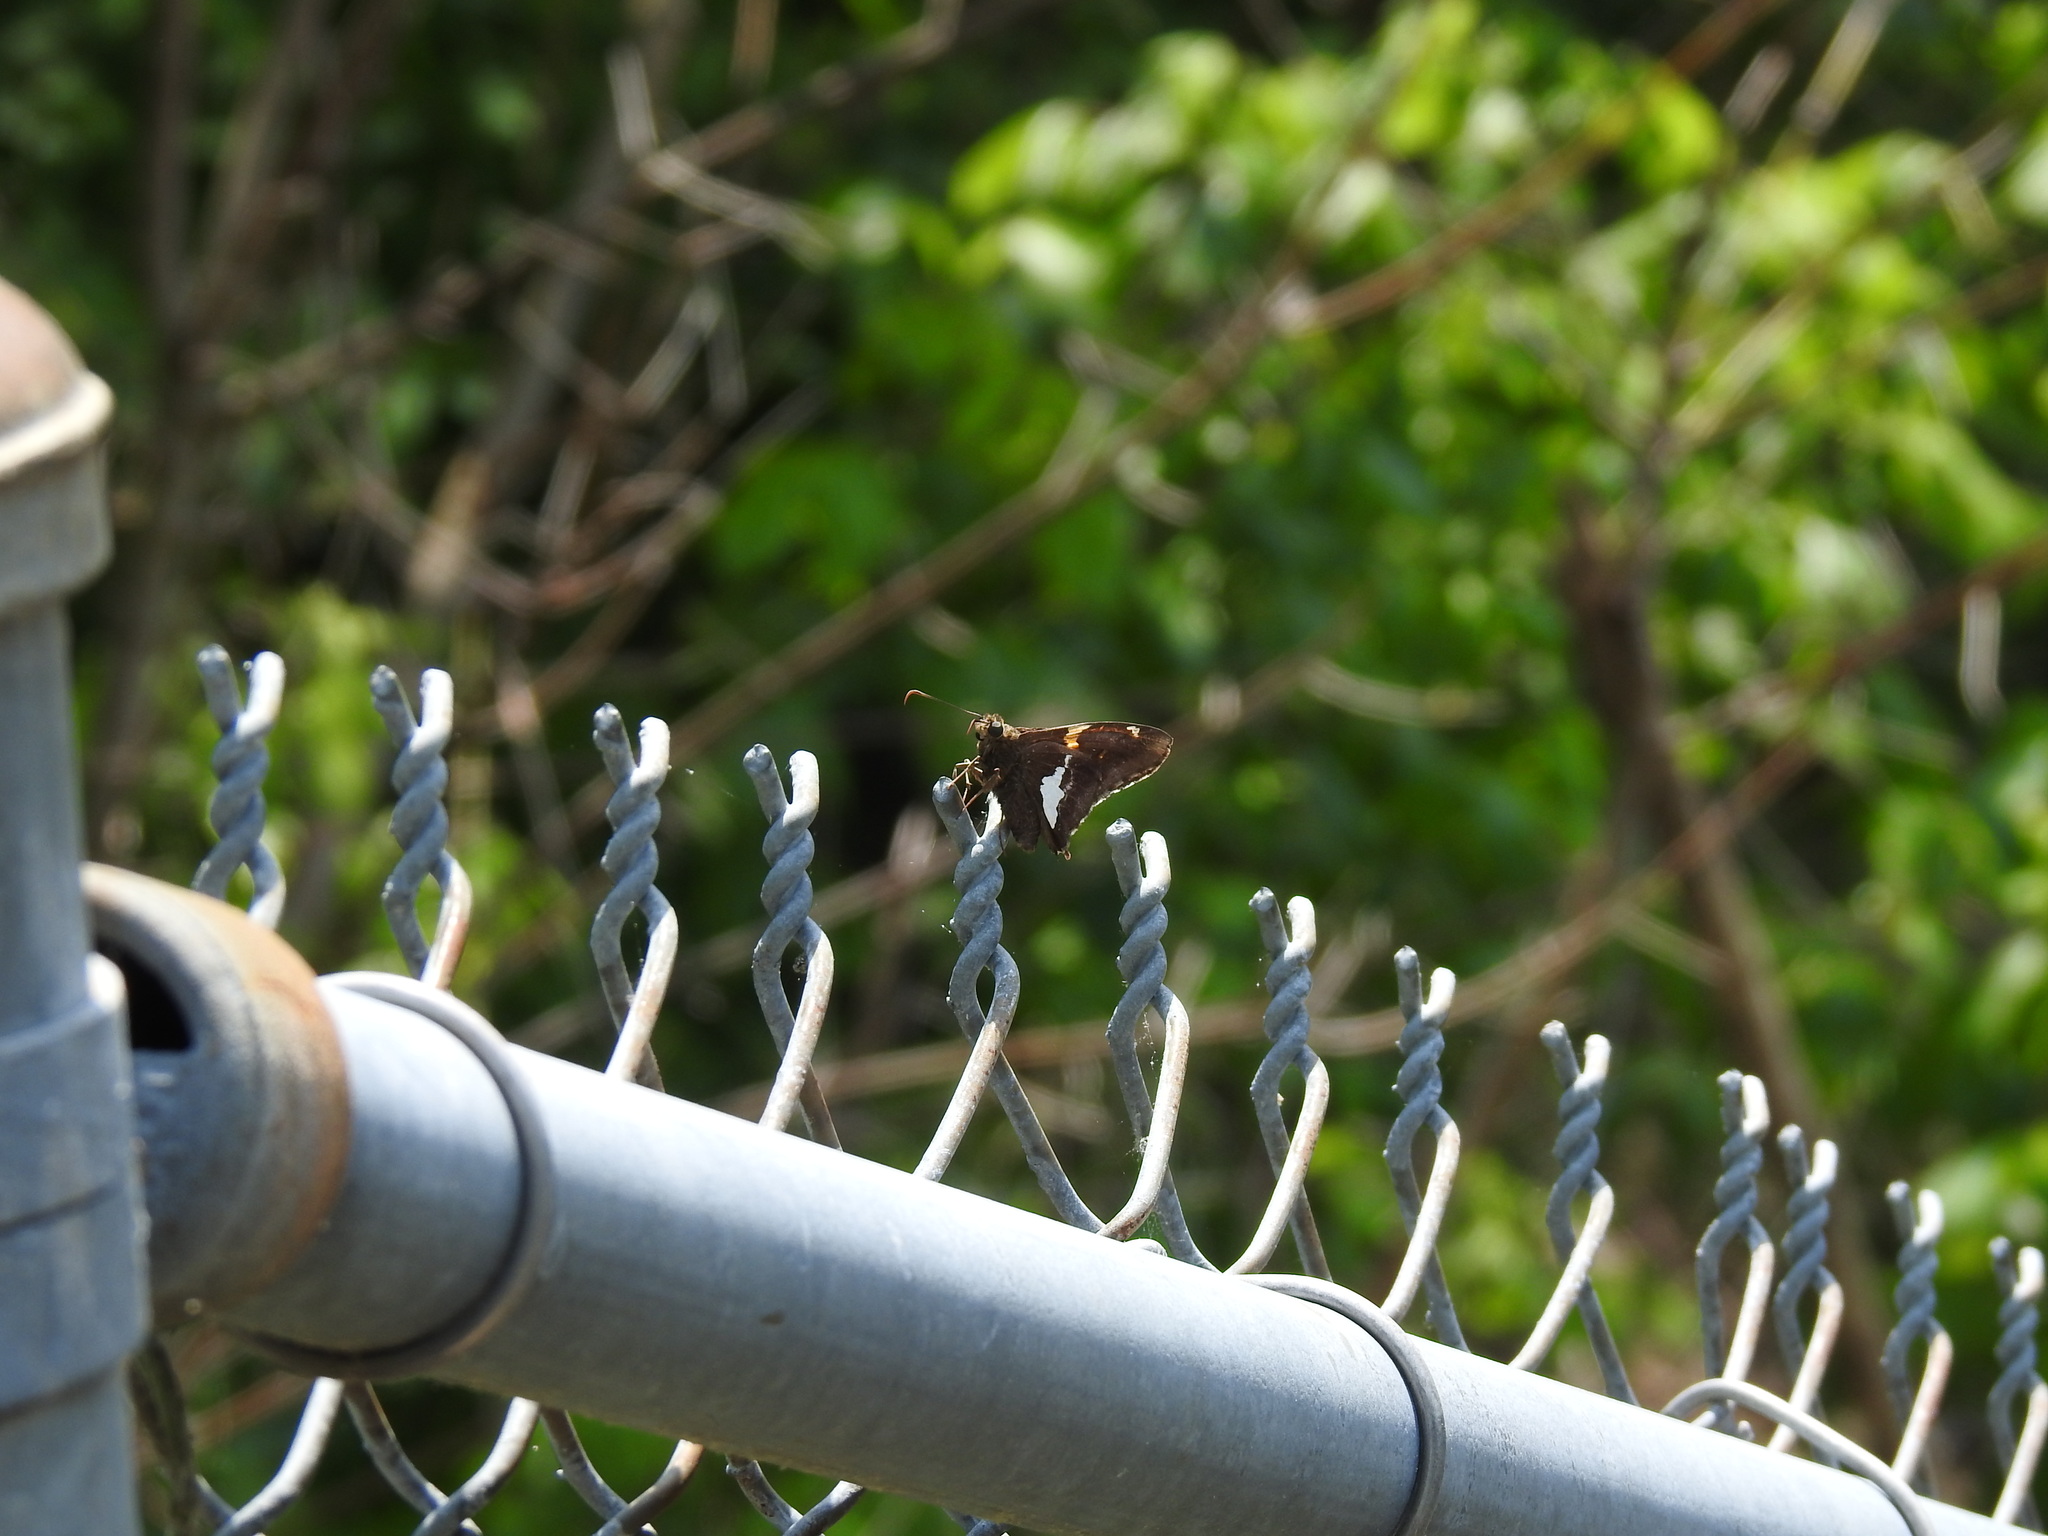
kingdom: Animalia
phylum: Arthropoda
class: Insecta
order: Lepidoptera
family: Hesperiidae
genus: Epargyreus
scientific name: Epargyreus clarus
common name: Silver-spotted skipper
